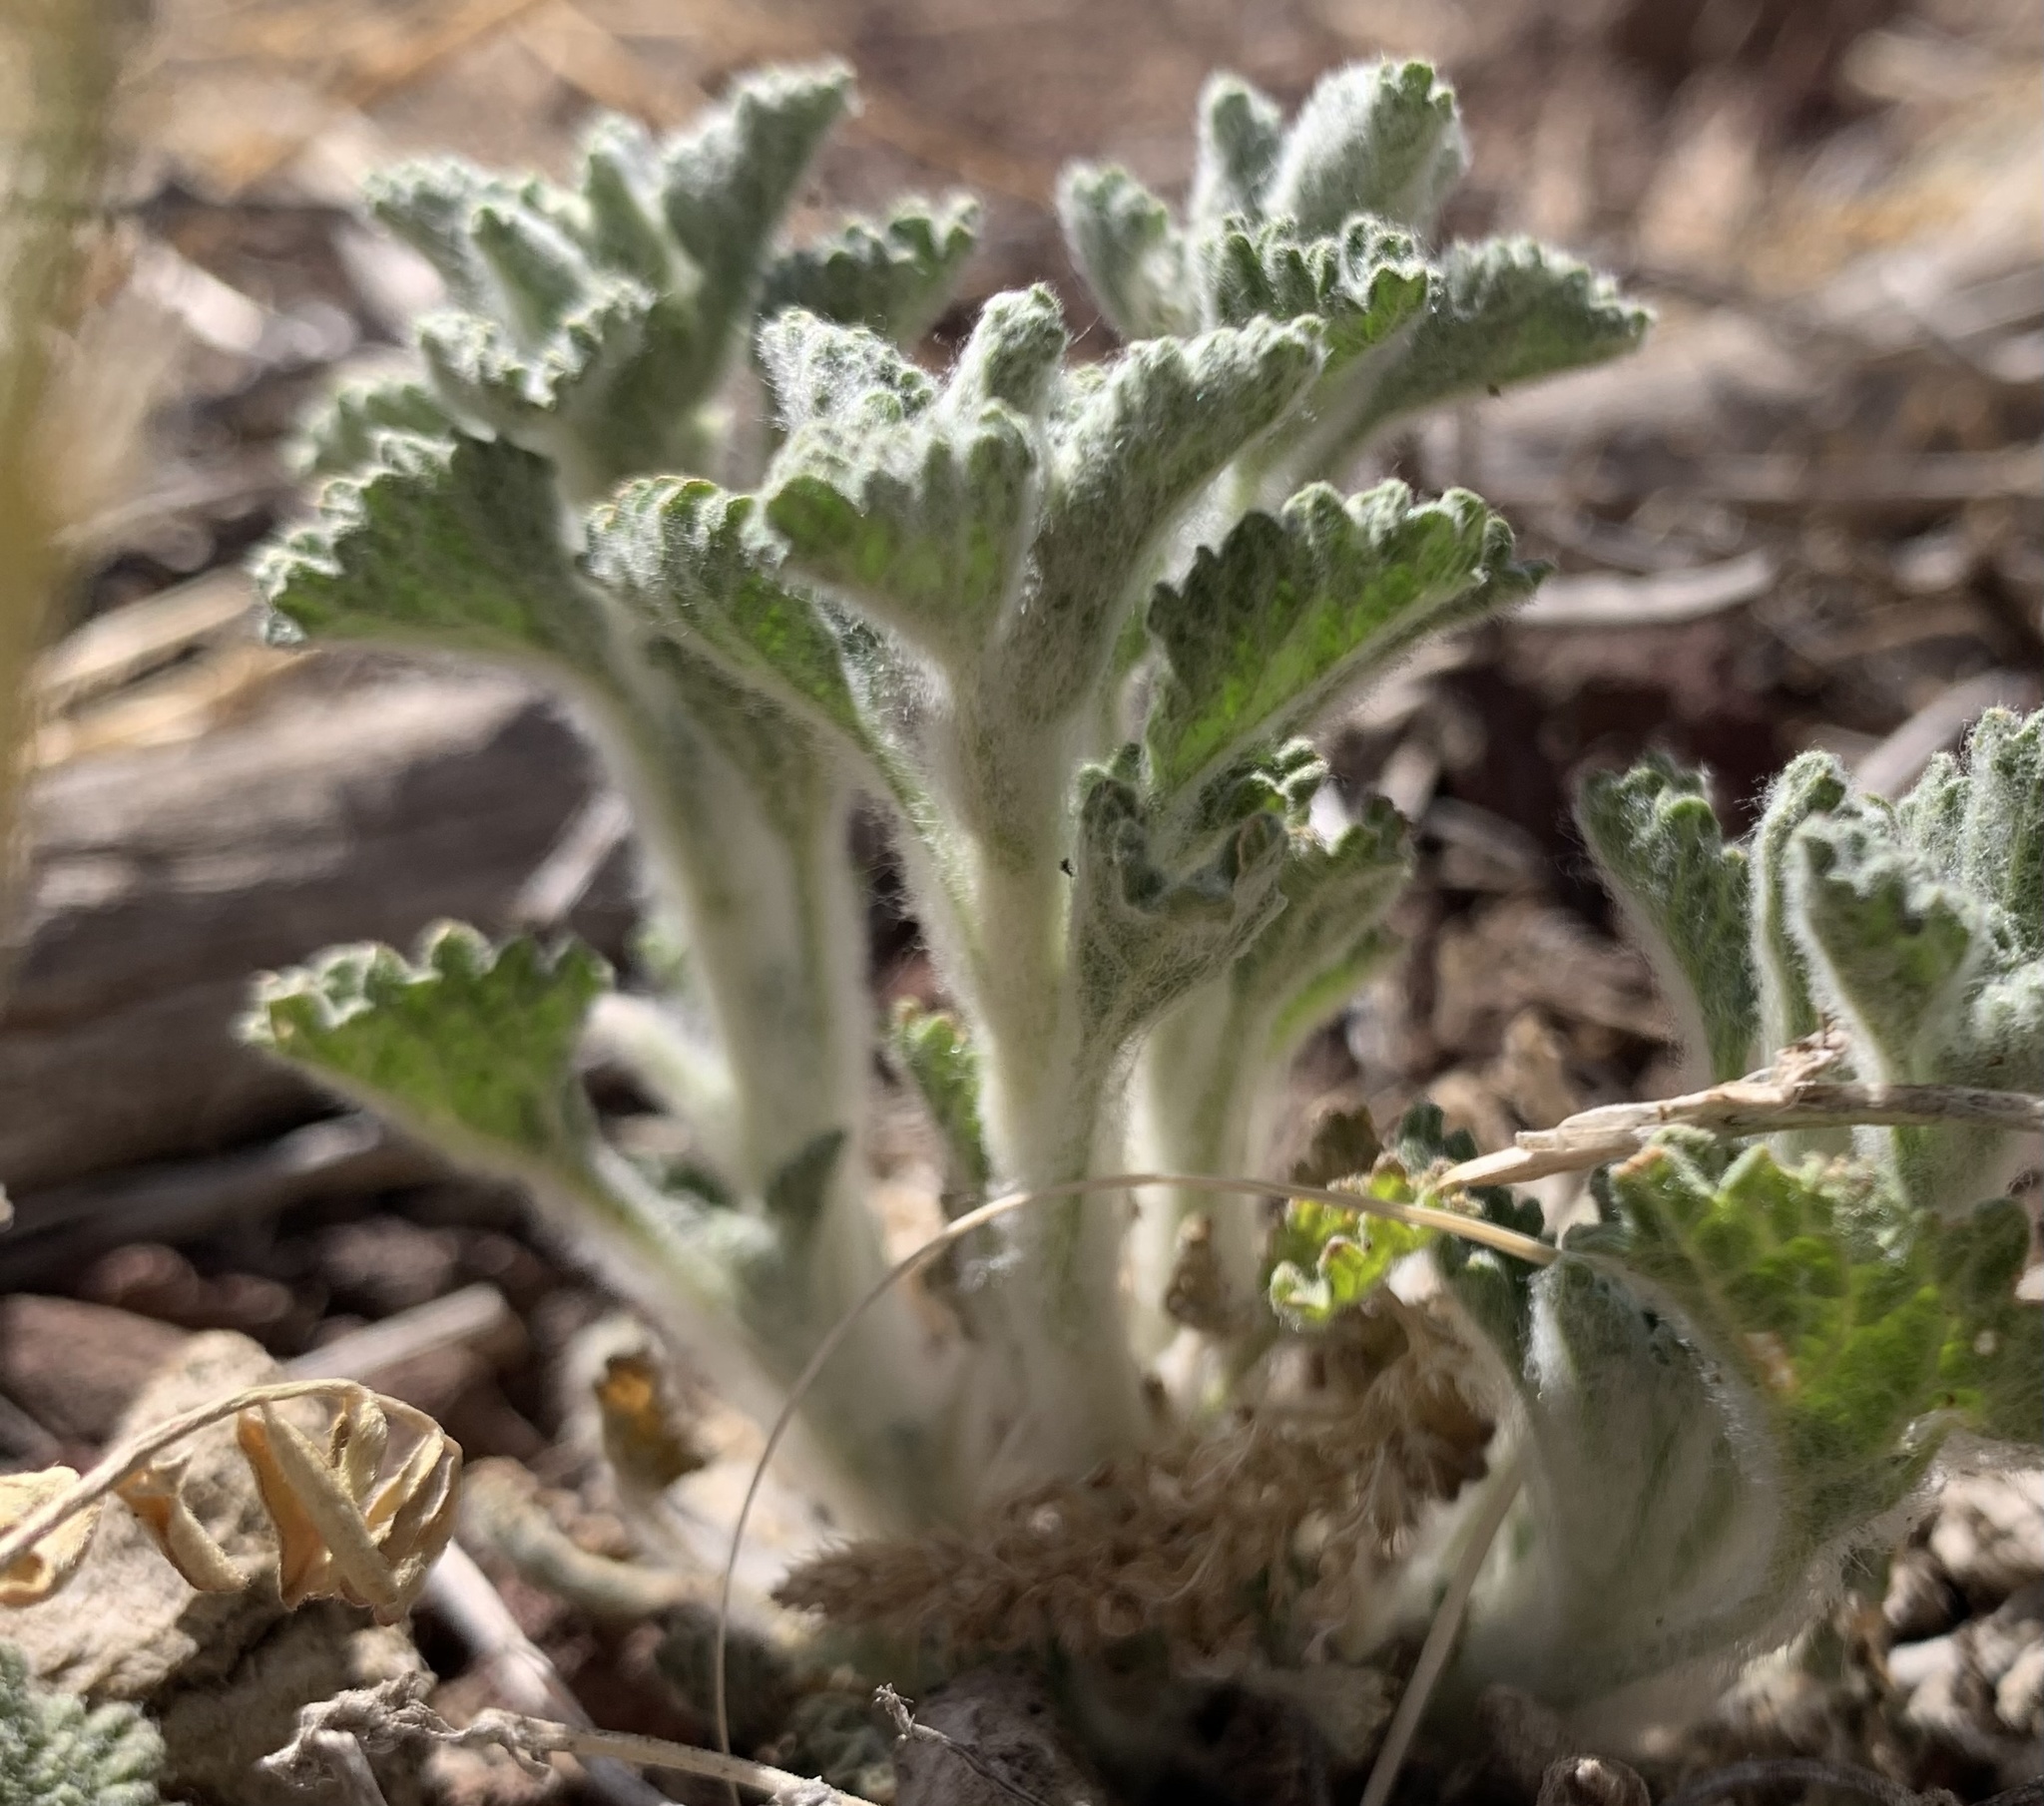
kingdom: Plantae
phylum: Tracheophyta
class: Magnoliopsida
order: Lamiales
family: Lamiaceae
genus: Marrubium
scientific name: Marrubium vulgare
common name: Horehound
